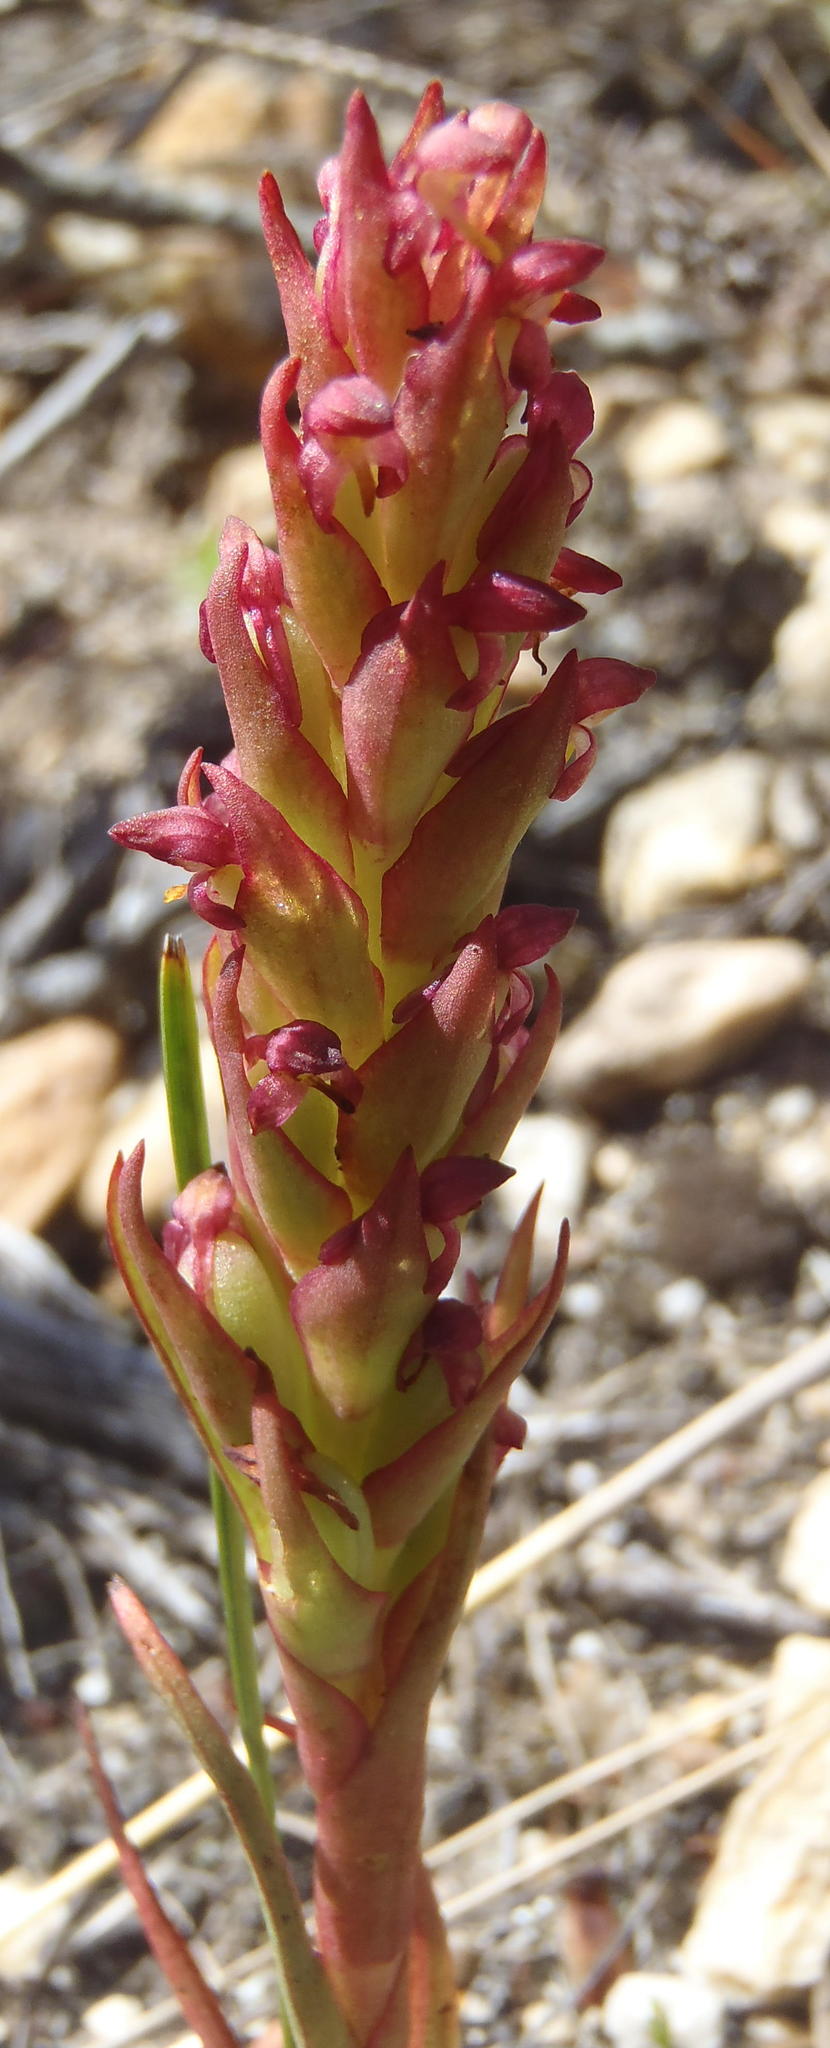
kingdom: Plantae
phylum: Tracheophyta
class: Liliopsida
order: Asparagales
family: Orchidaceae
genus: Disa
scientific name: Disa bracteata
